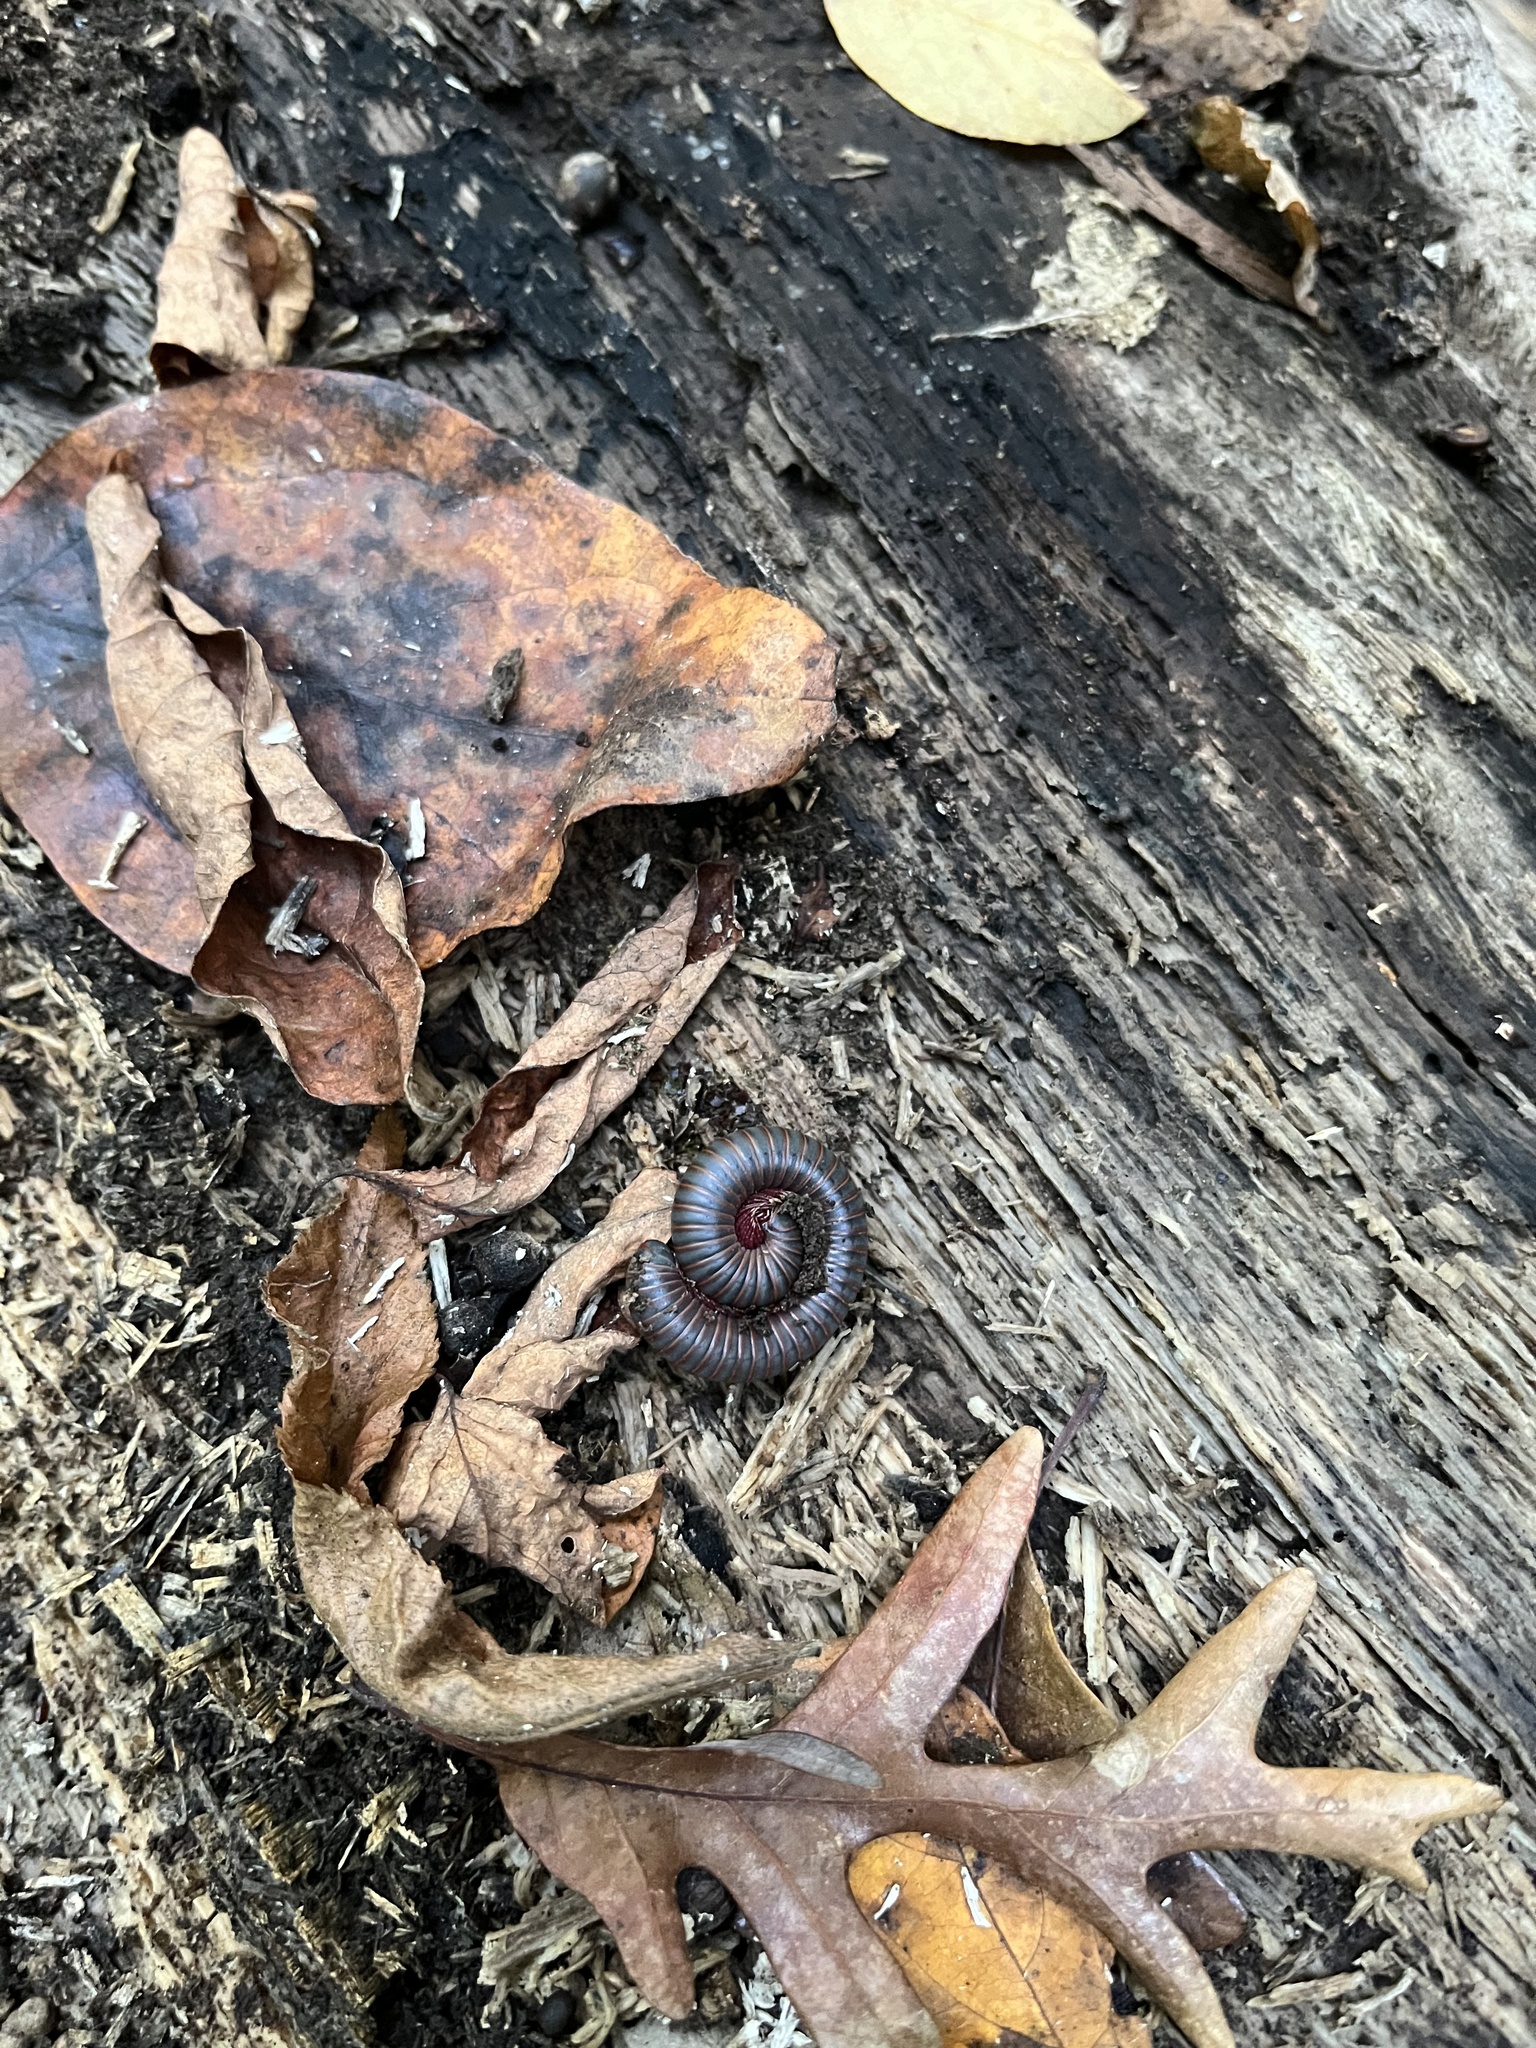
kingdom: Animalia
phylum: Arthropoda
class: Diplopoda
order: Spirobolida
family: Spirobolidae
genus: Narceus
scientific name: Narceus americanus
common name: American giant millipede
